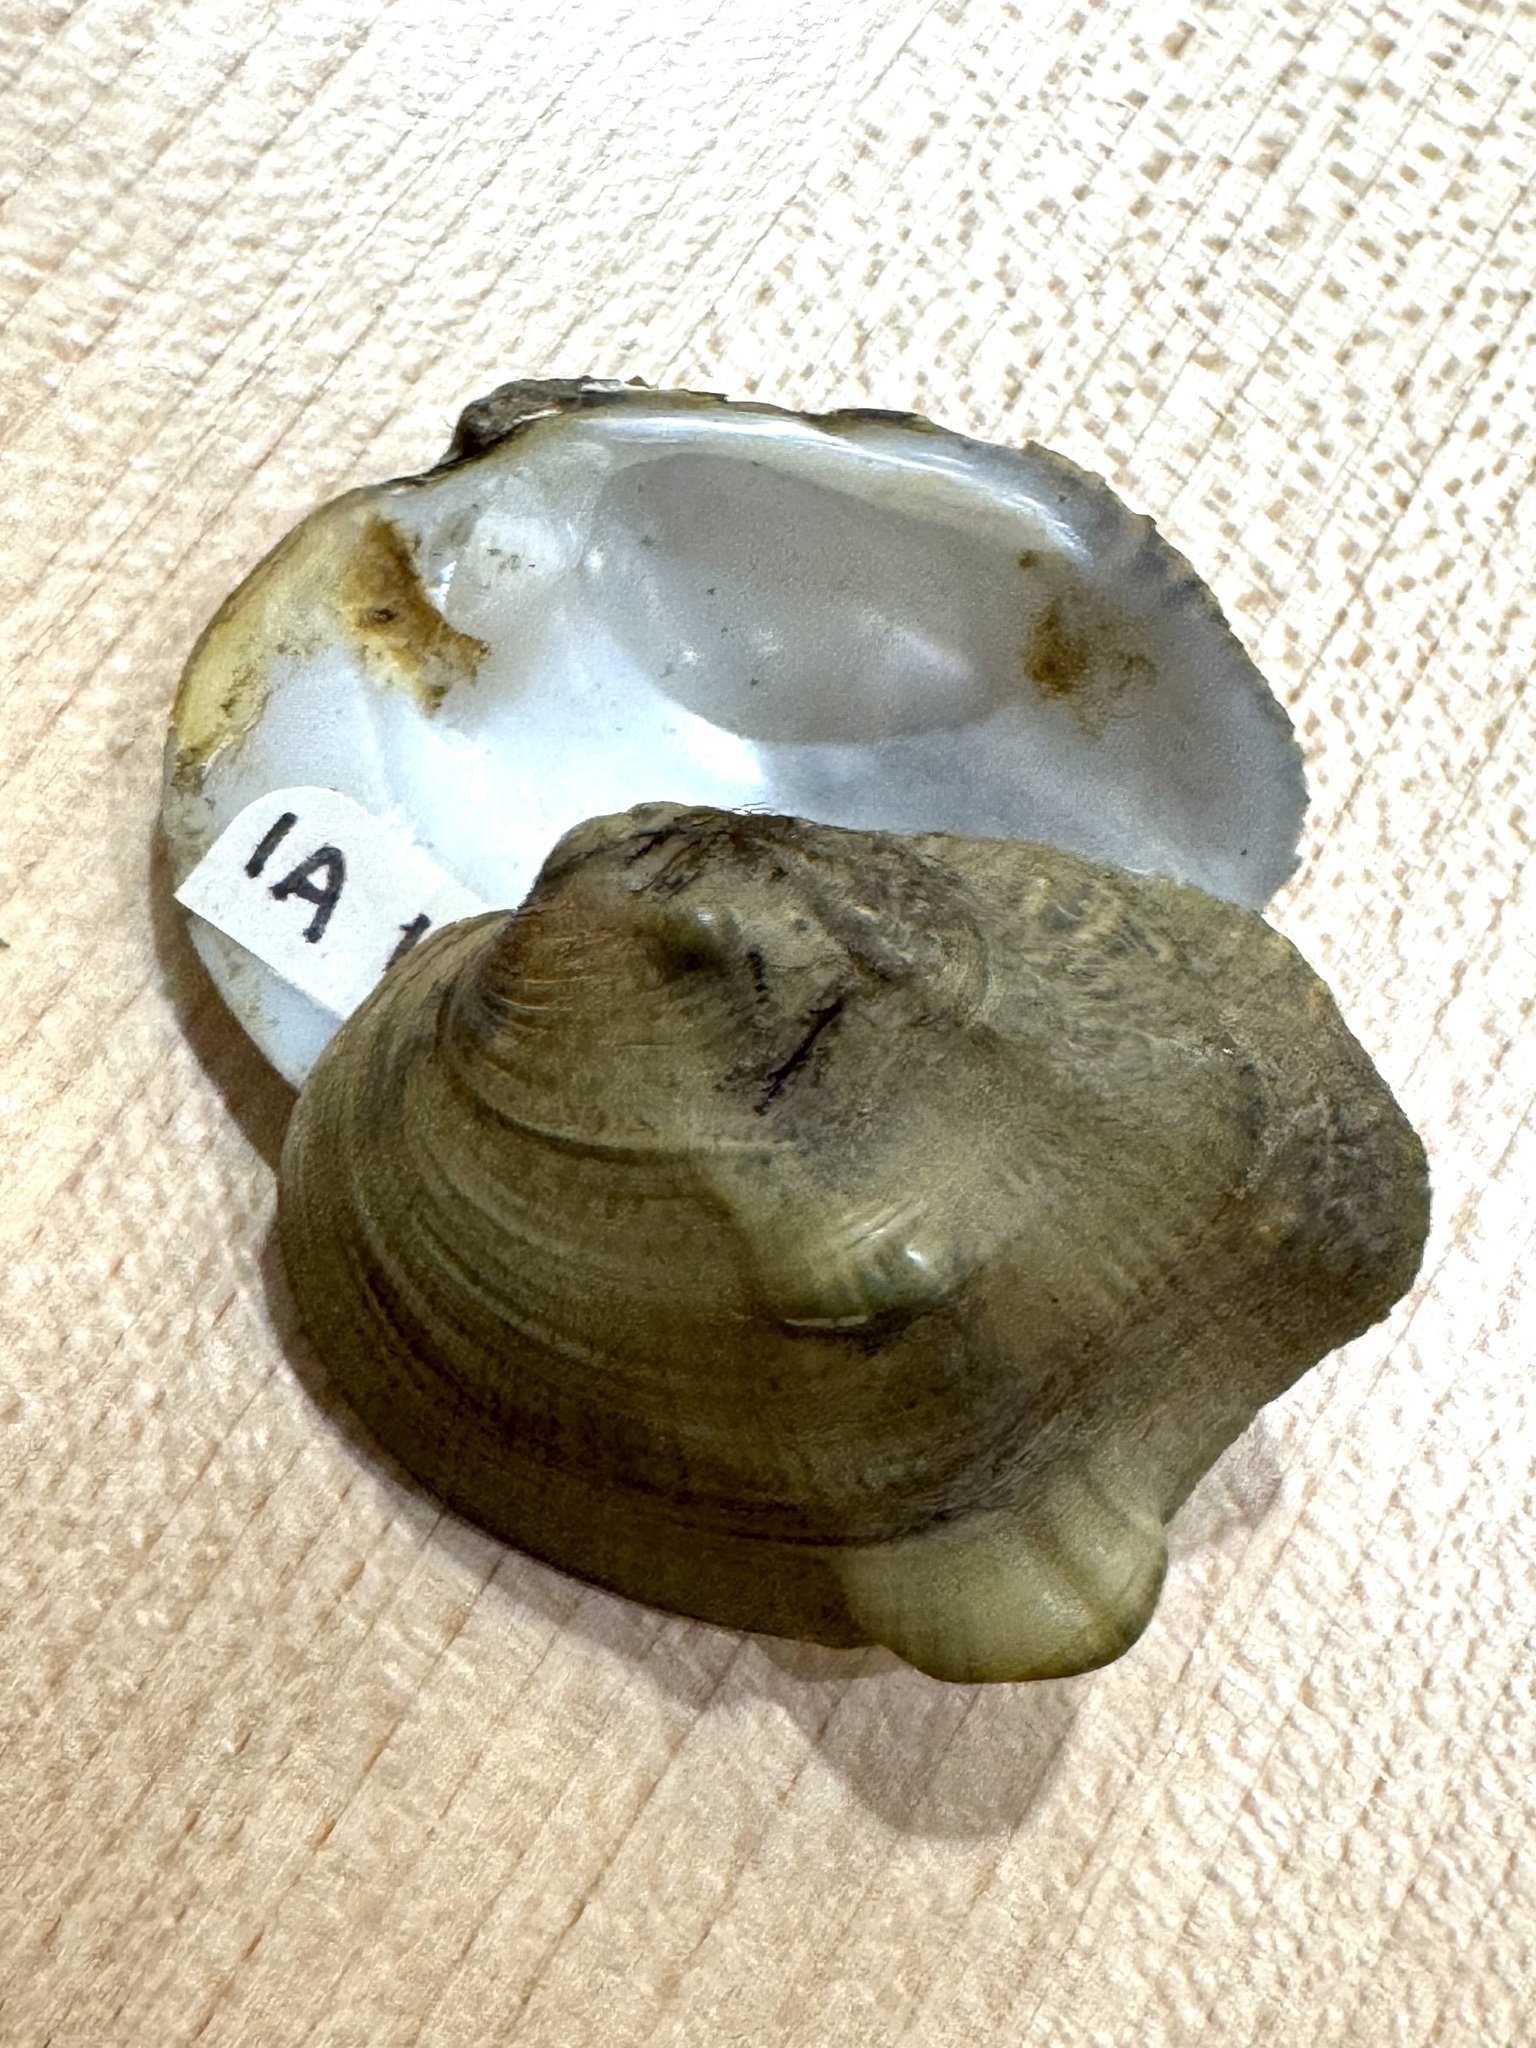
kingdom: Animalia
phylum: Mollusca
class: Bivalvia
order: Unionida
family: Unionidae
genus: Obliquaria
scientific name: Obliquaria reflexa
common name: Threehorn wartyback
